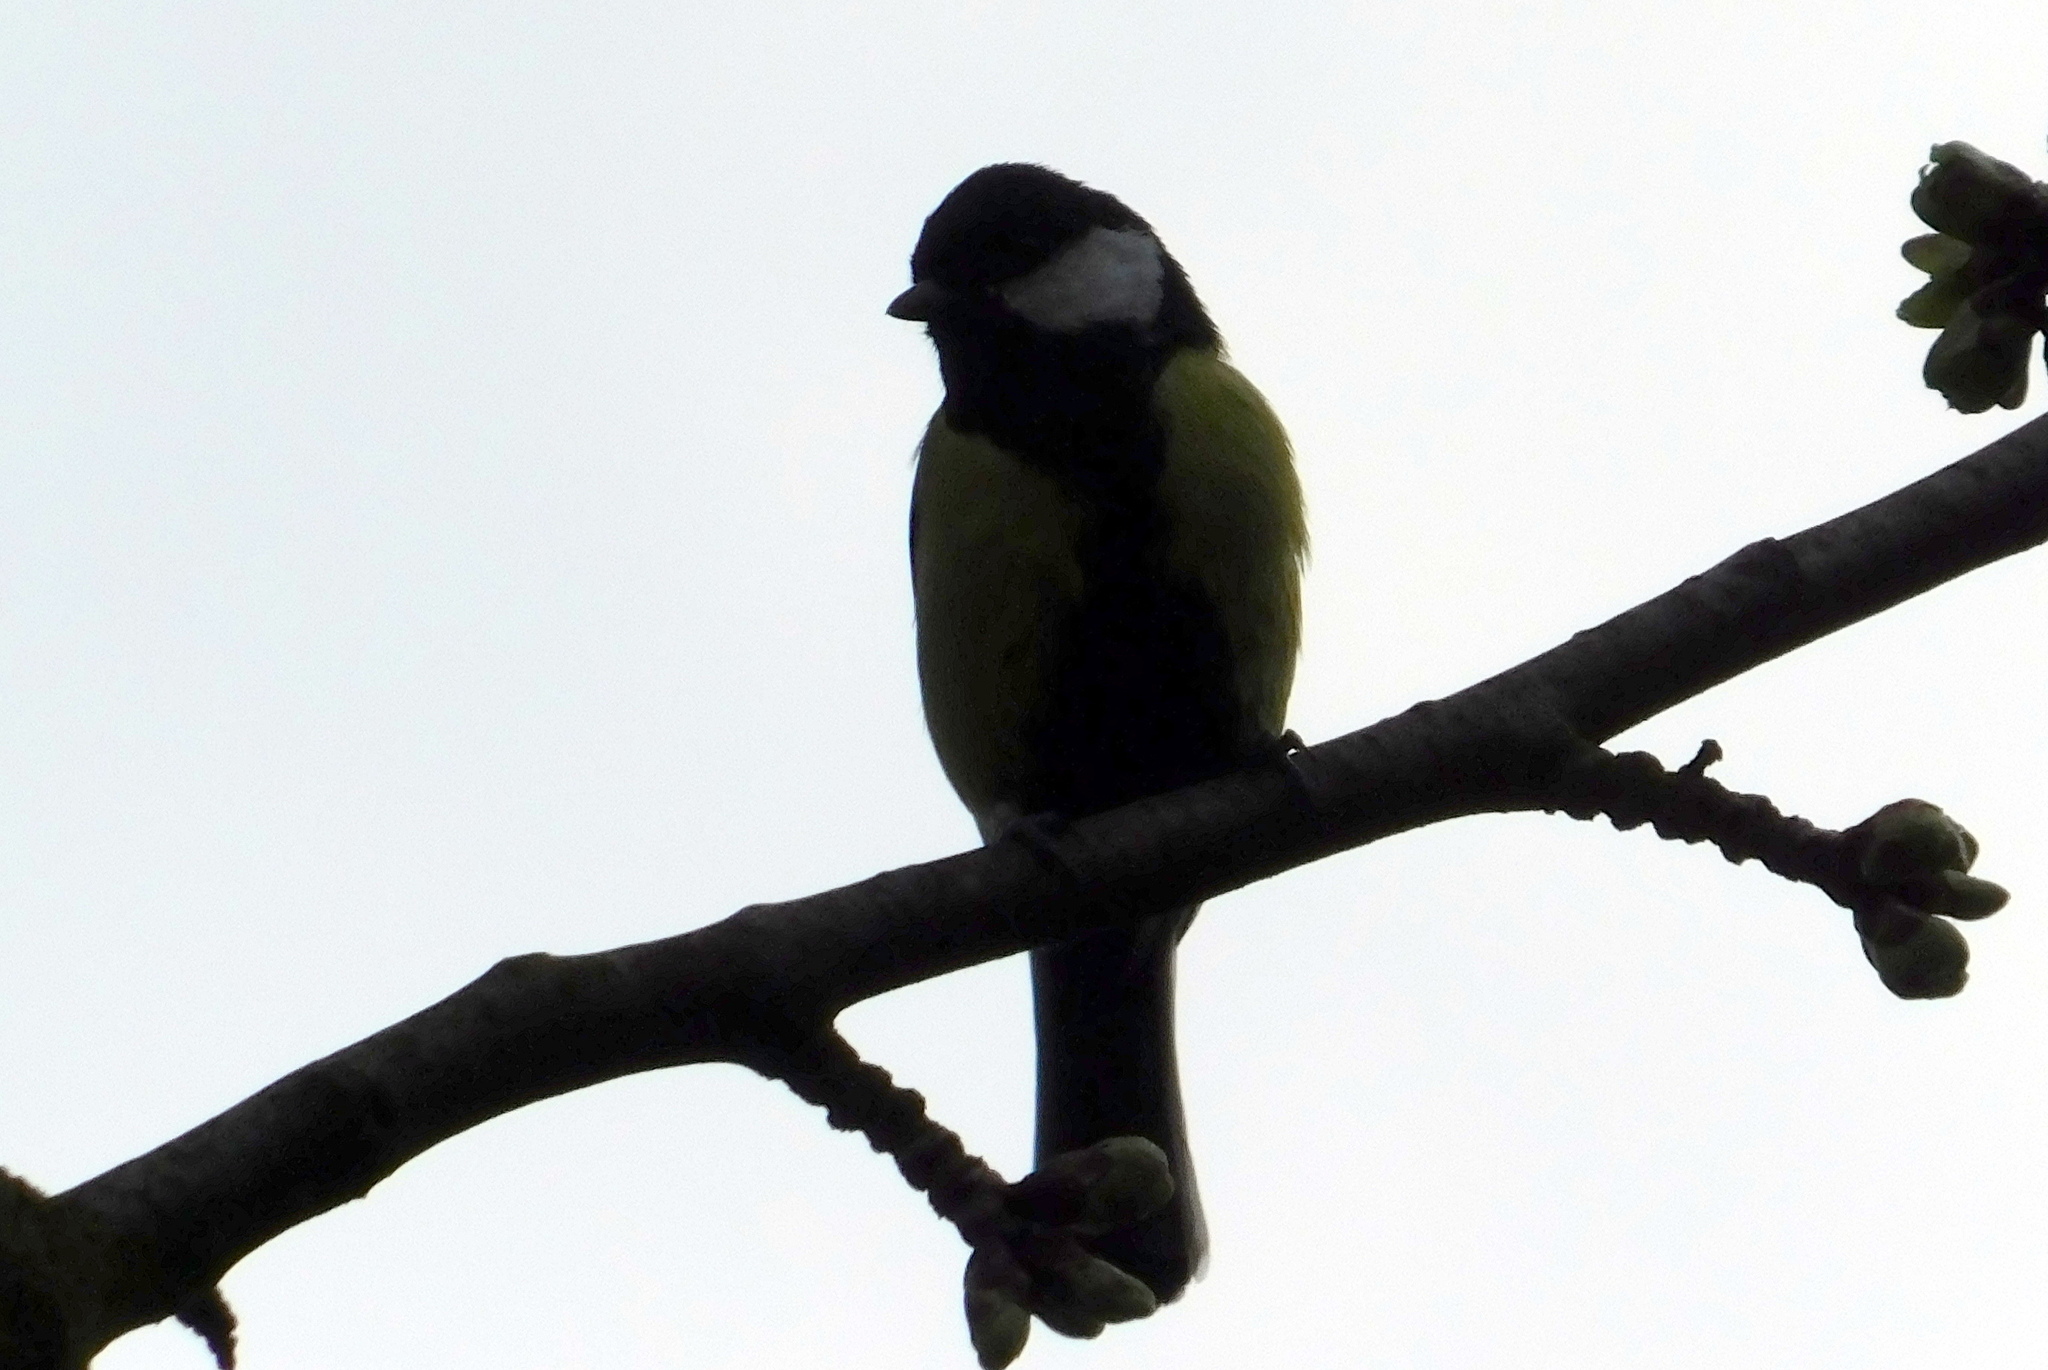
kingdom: Animalia
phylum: Chordata
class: Aves
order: Passeriformes
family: Paridae
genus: Parus
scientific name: Parus major
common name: Great tit
